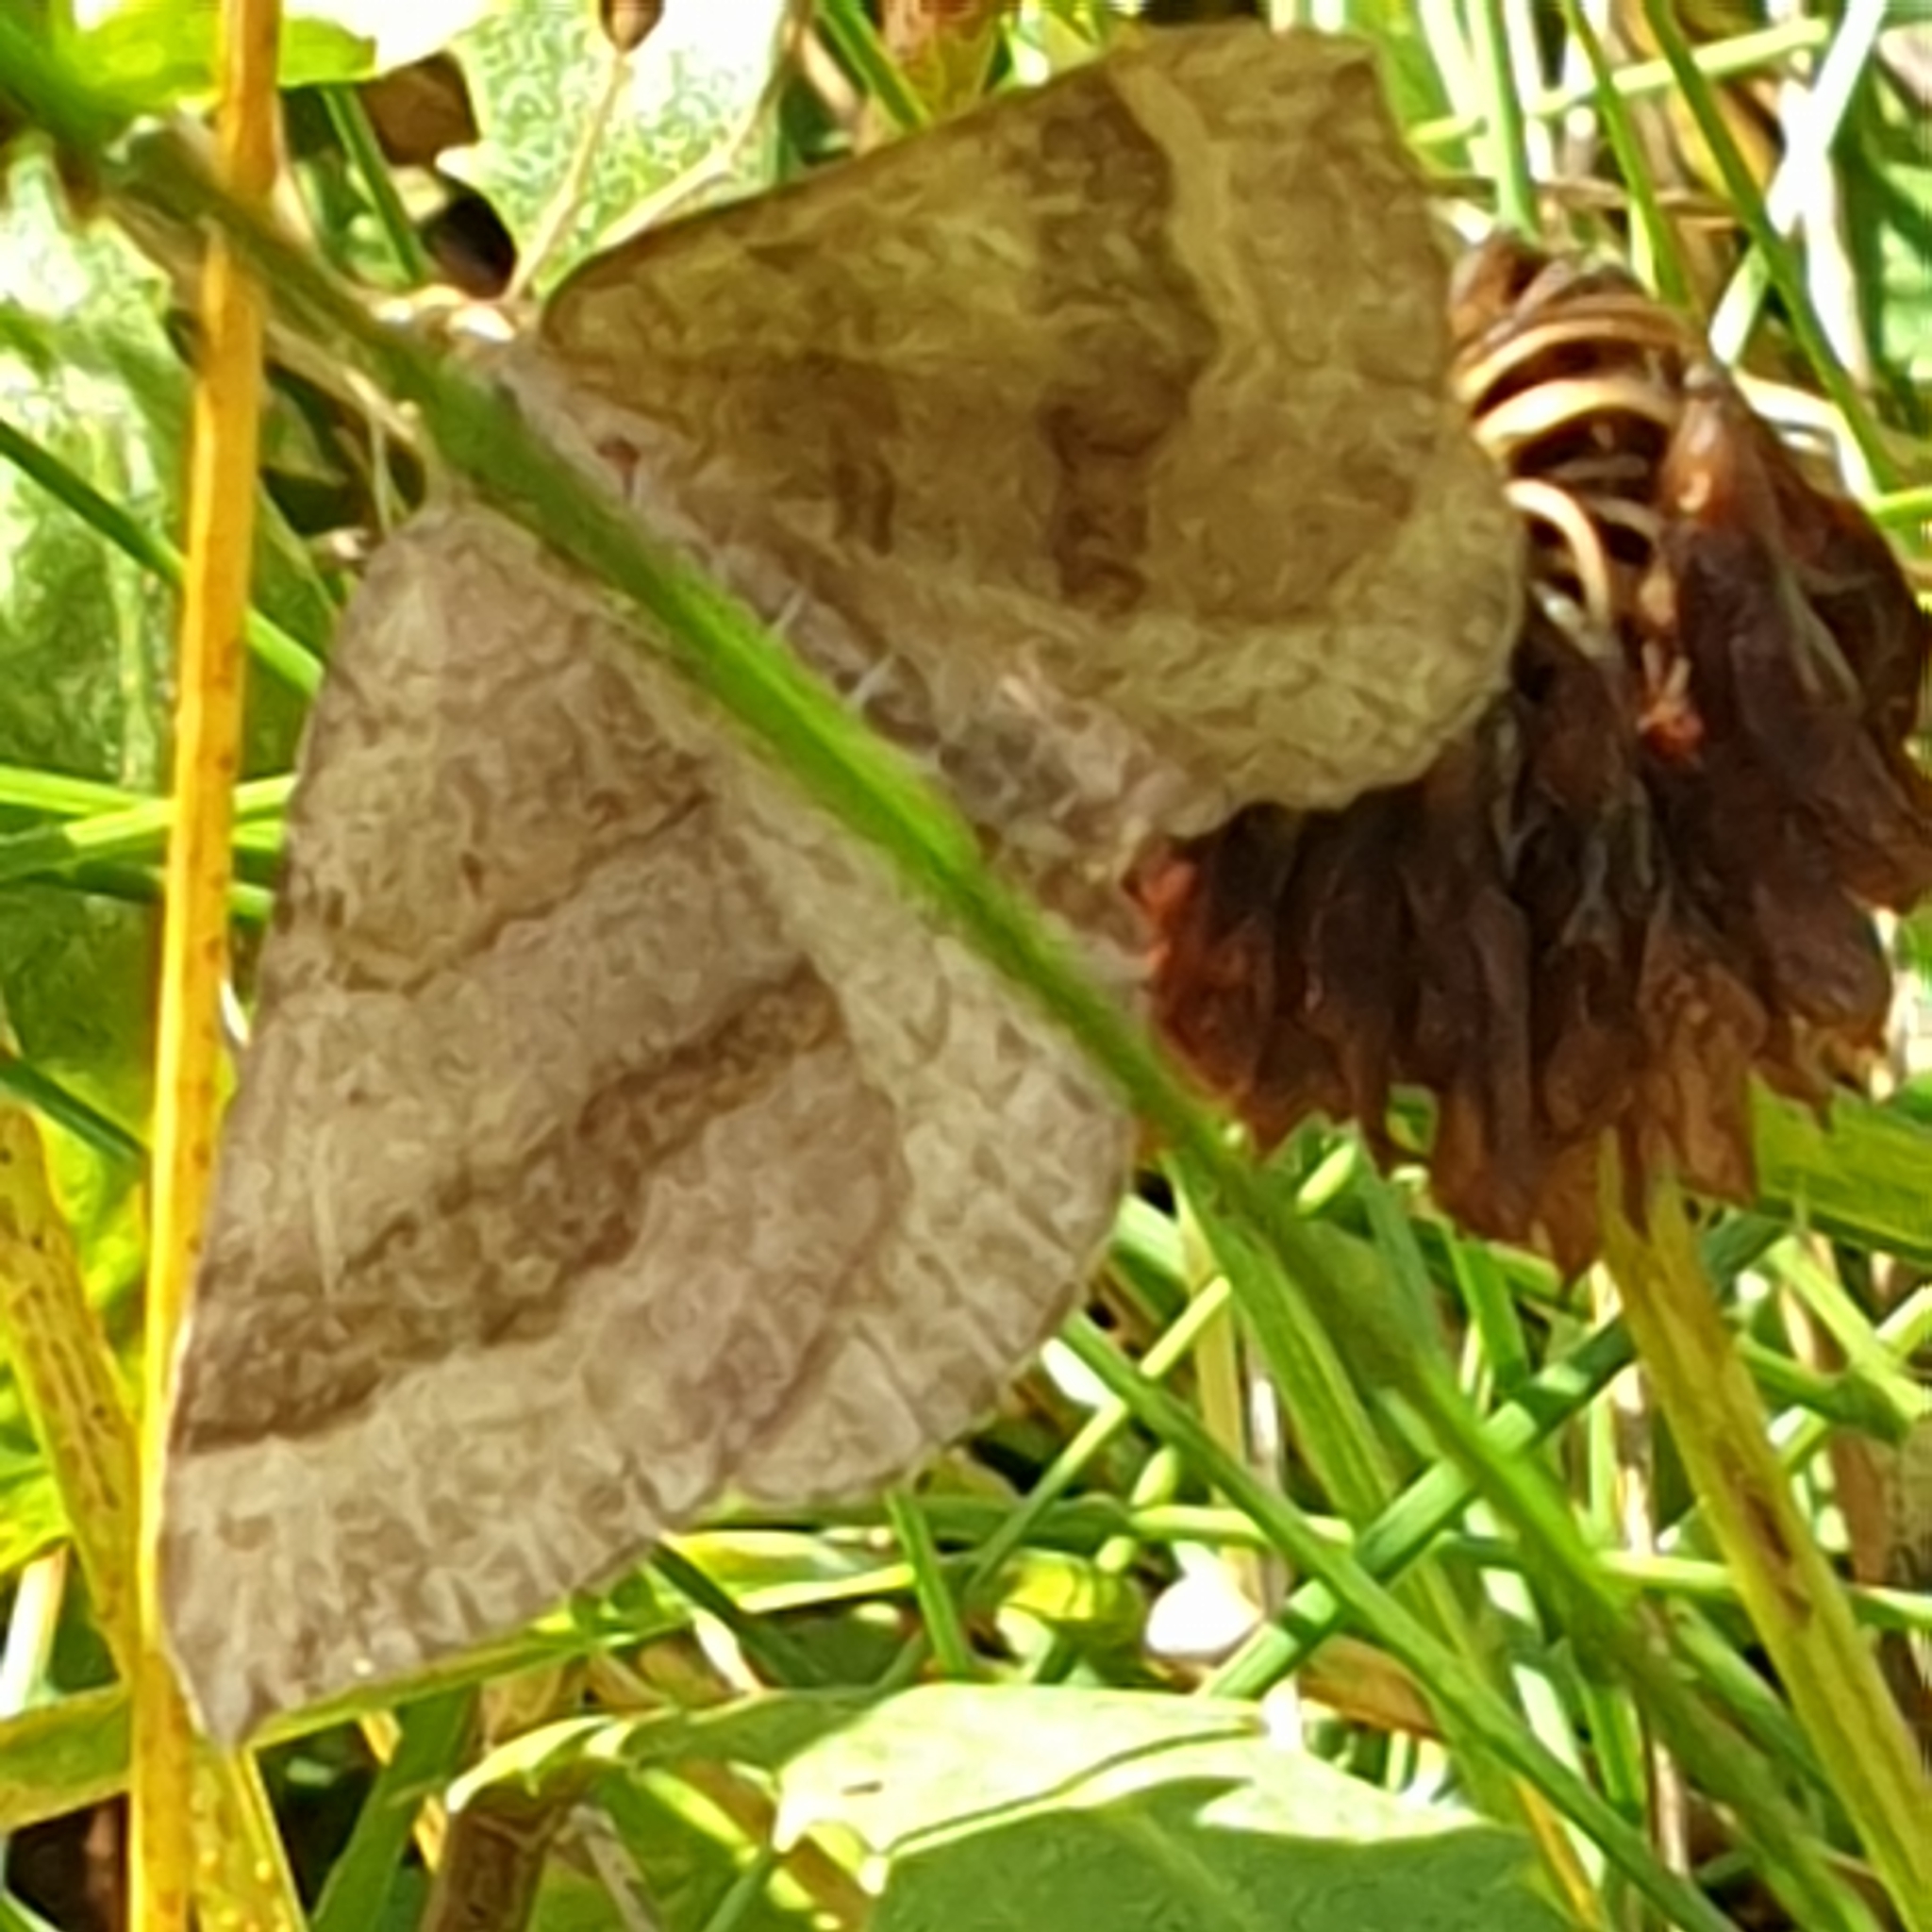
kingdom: Animalia
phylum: Arthropoda
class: Insecta
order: Lepidoptera
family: Geometridae
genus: Scotopteryx
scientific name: Scotopteryx chenopodiata
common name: Shaded broad-bar
